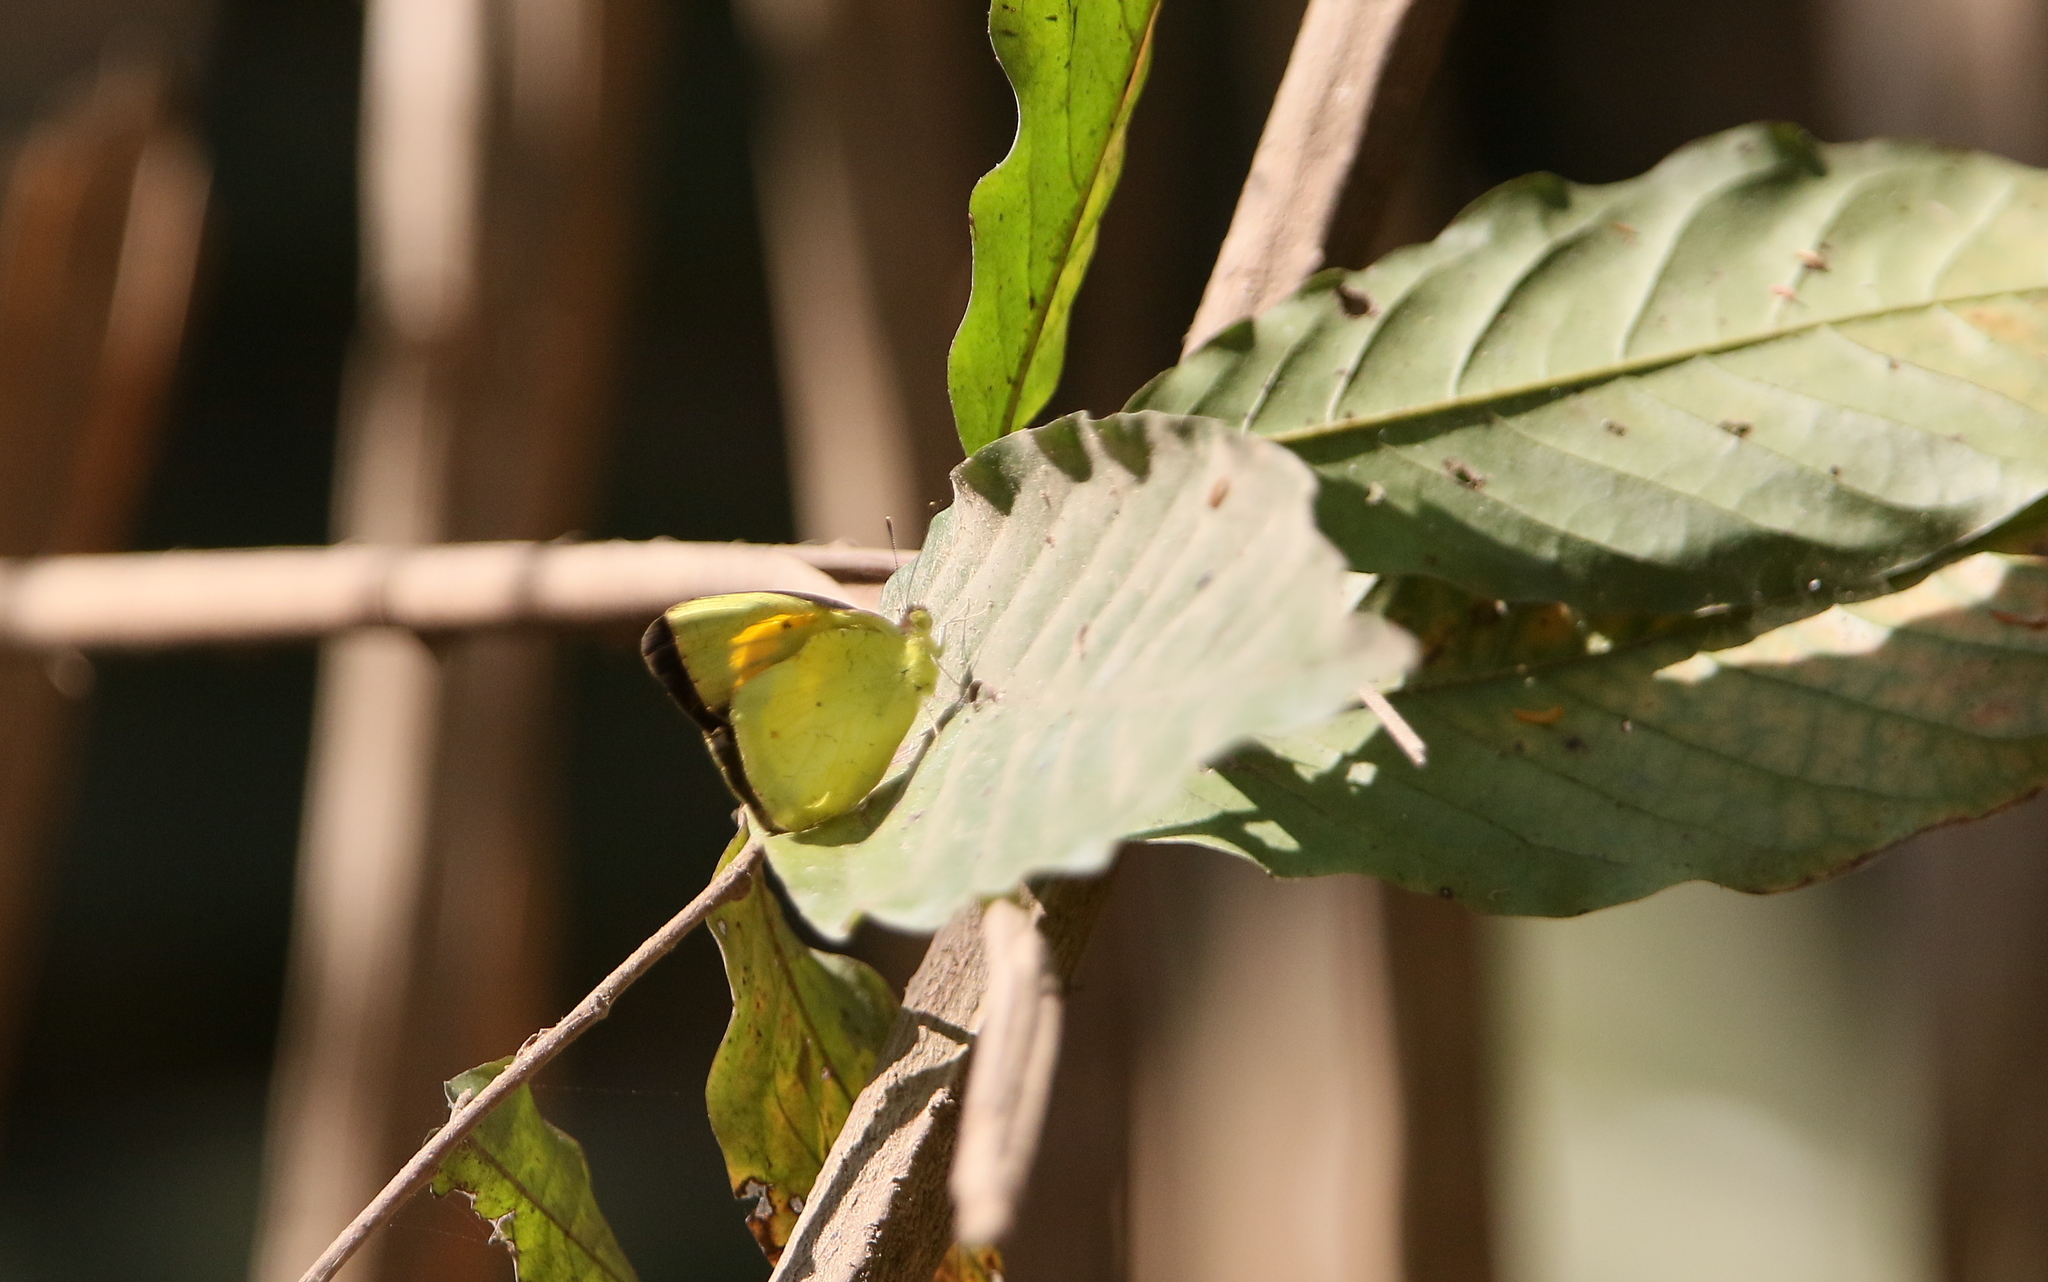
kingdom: Animalia
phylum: Arthropoda
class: Insecta
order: Lepidoptera
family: Pieridae
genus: Ixias
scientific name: Ixias pyrene
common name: Yellow orange tip
